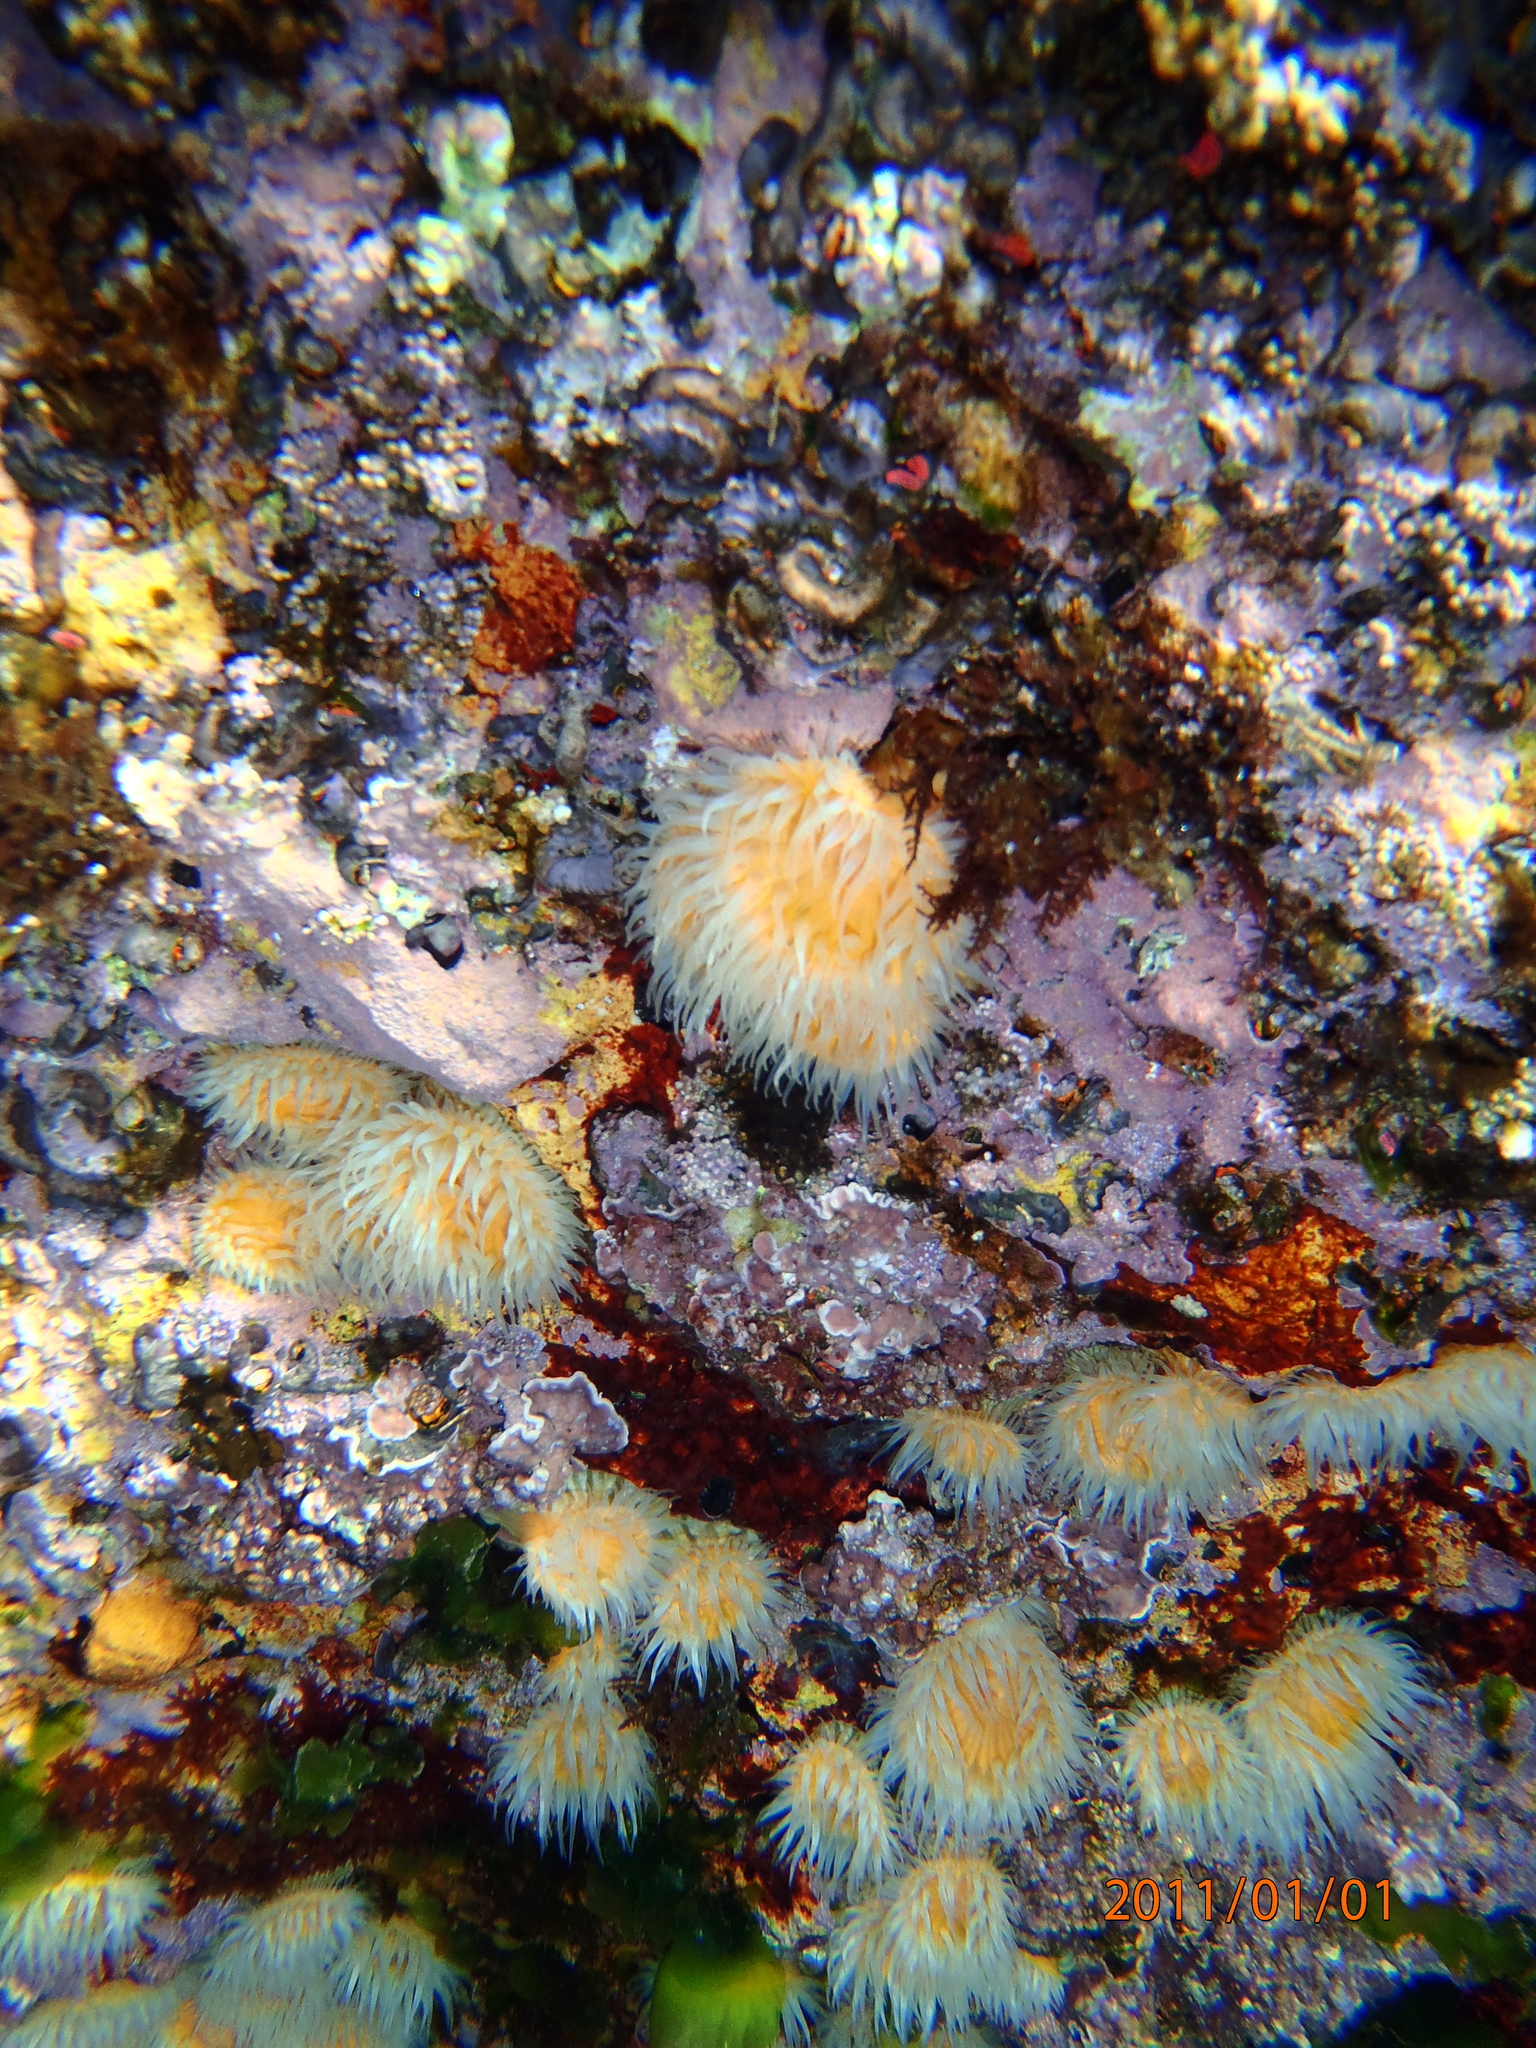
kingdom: Animalia
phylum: Cnidaria
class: Anthozoa
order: Actiniaria
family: Sagartiidae
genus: Anthothoe
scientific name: Anthothoe albocincta
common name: Orange striped anemone
